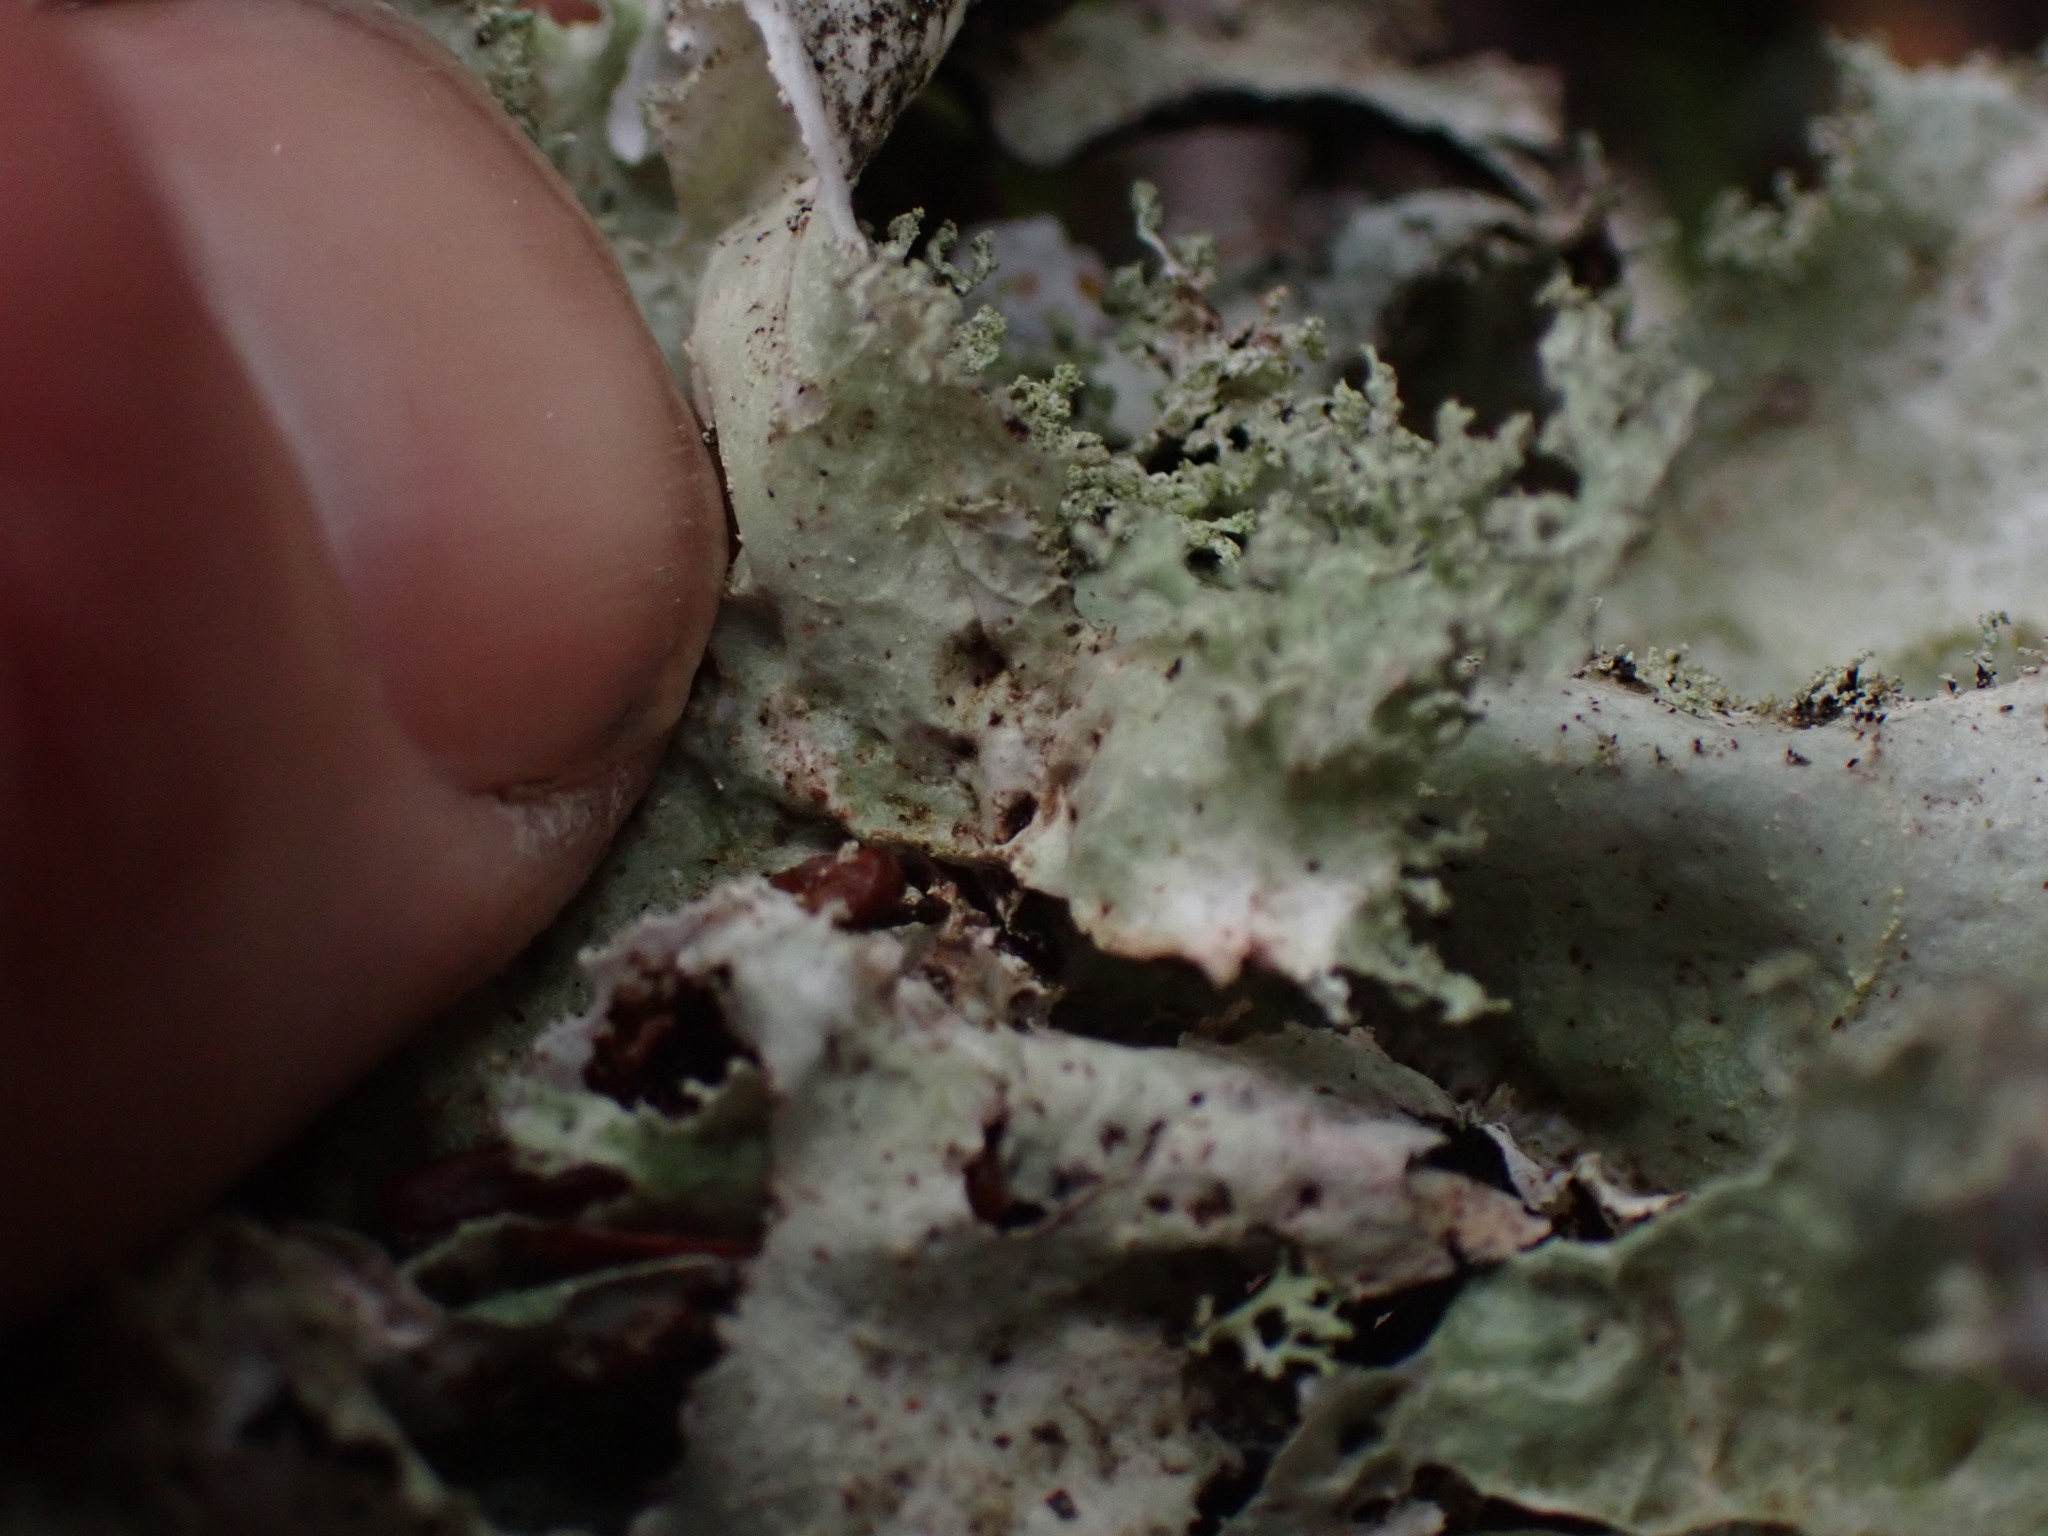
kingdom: Fungi
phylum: Ascomycota
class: Lecanoromycetes
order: Lecanorales
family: Parmeliaceae
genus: Platismatia
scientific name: Platismatia glauca
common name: Varied rag lichen
